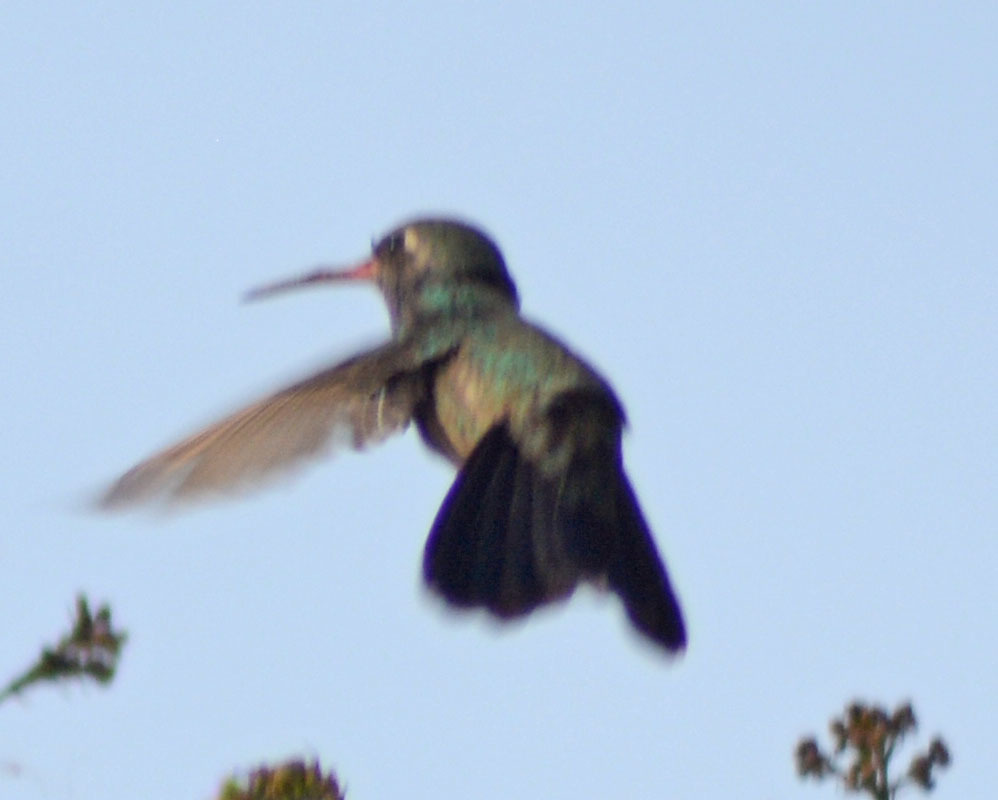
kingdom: Animalia
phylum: Chordata
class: Aves
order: Apodiformes
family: Trochilidae
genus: Cynanthus
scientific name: Cynanthus latirostris
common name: Broad-billed hummingbird
